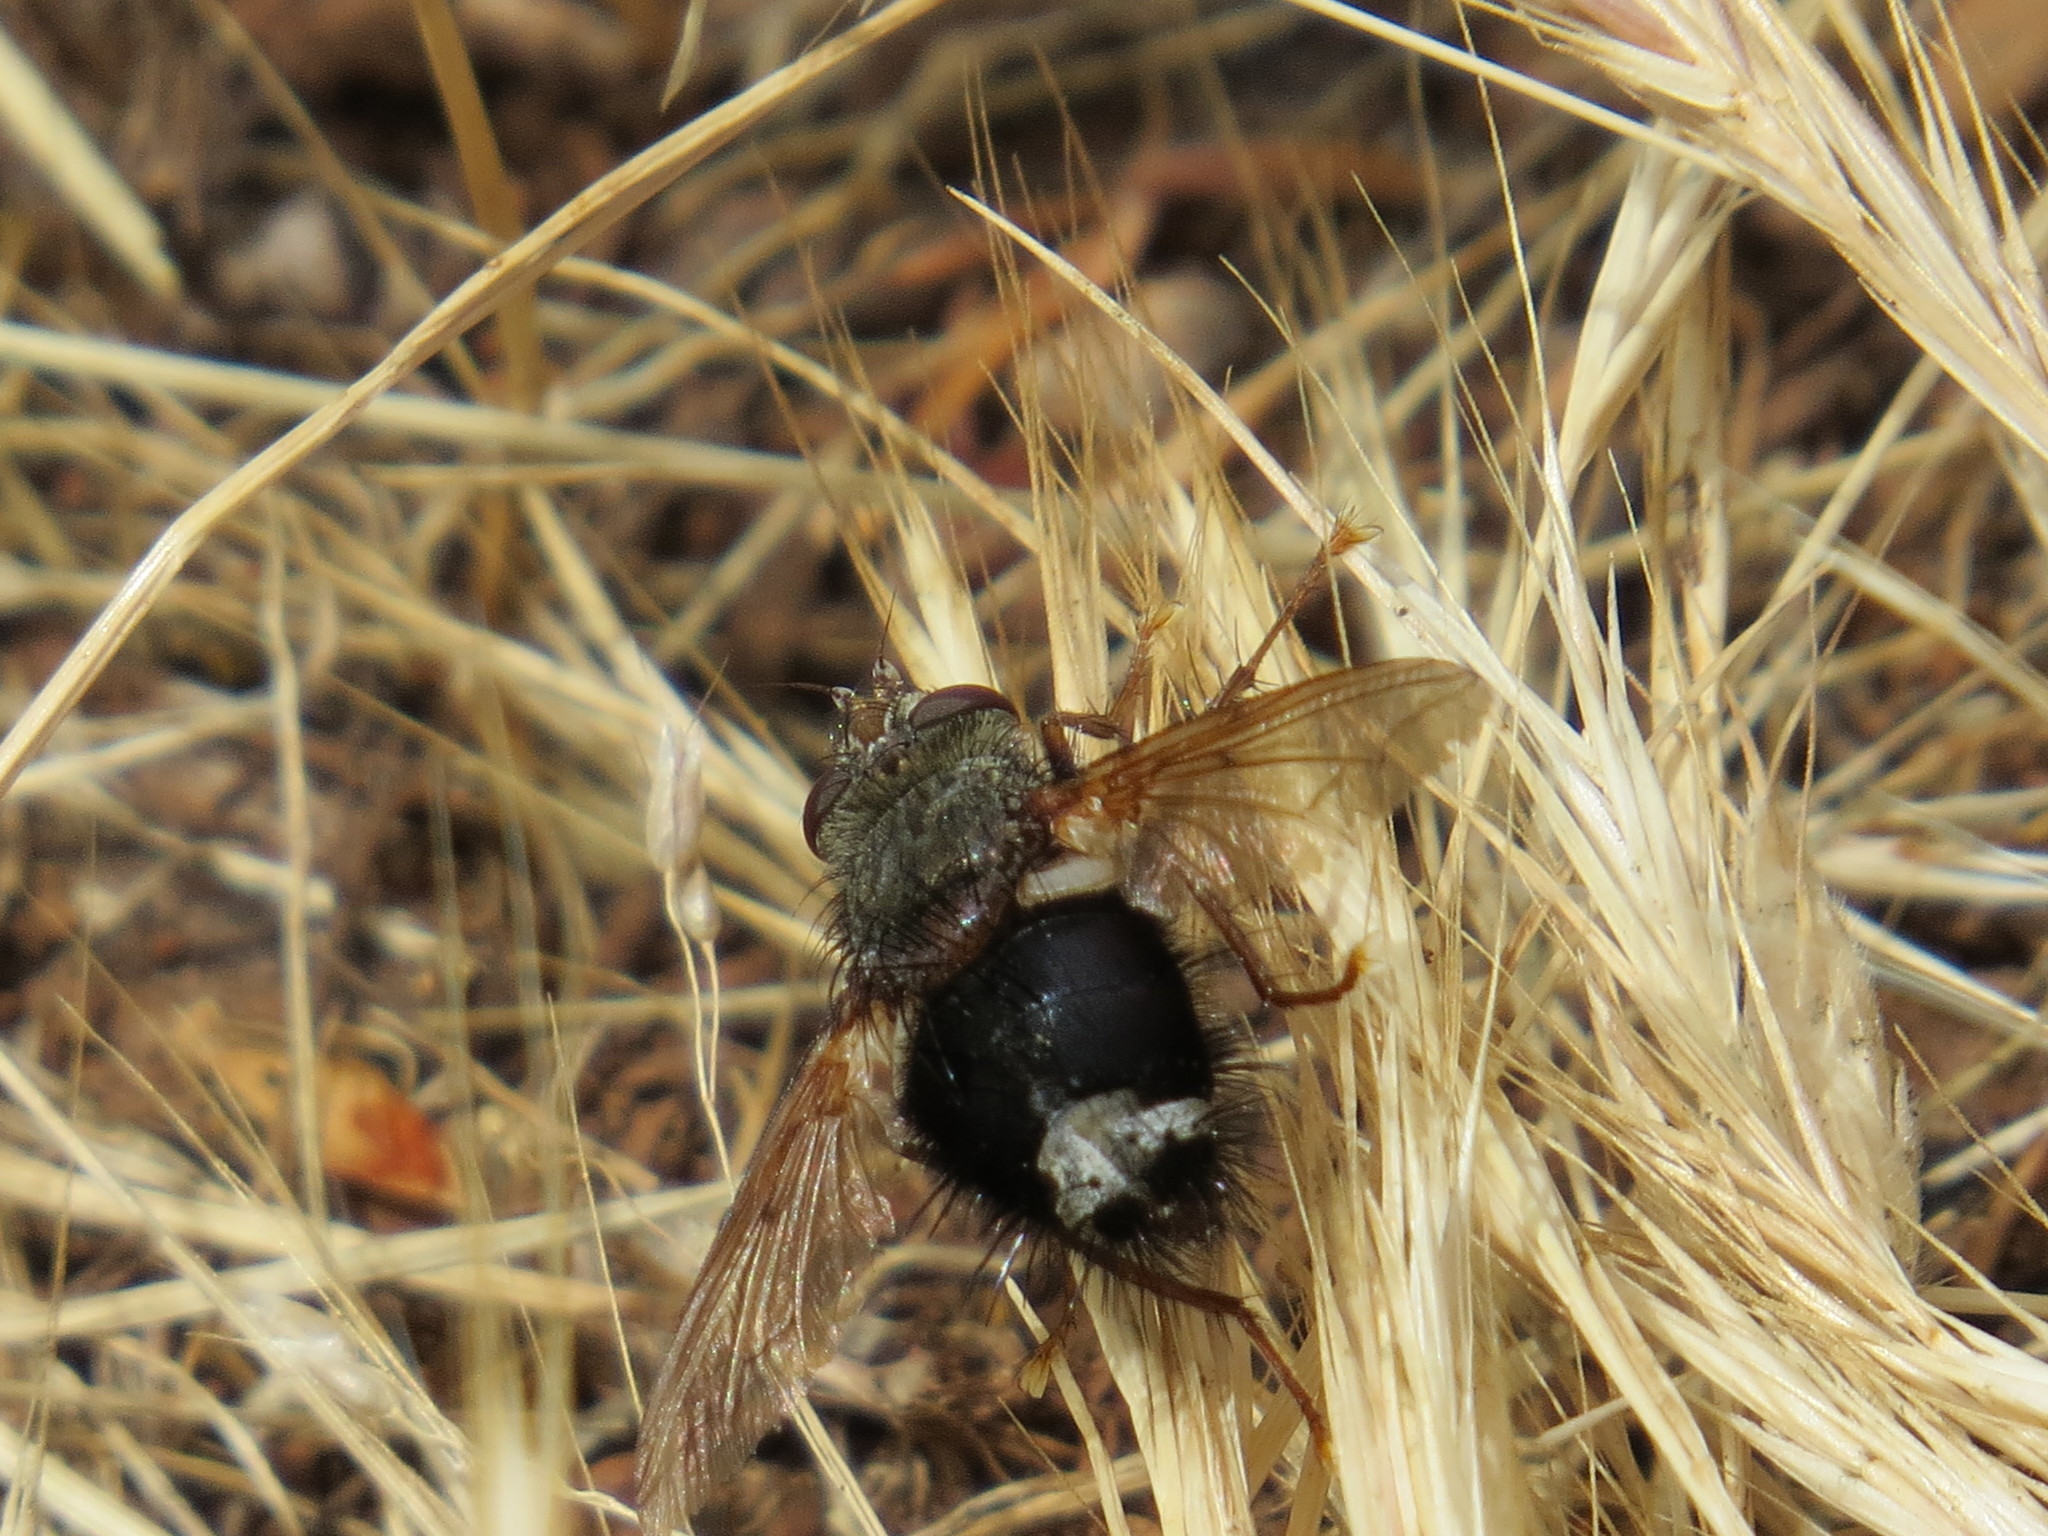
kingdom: Animalia
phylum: Arthropoda
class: Insecta
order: Diptera
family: Tachinidae
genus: Epalpus
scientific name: Epalpus signifer
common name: Early tachinid fly
